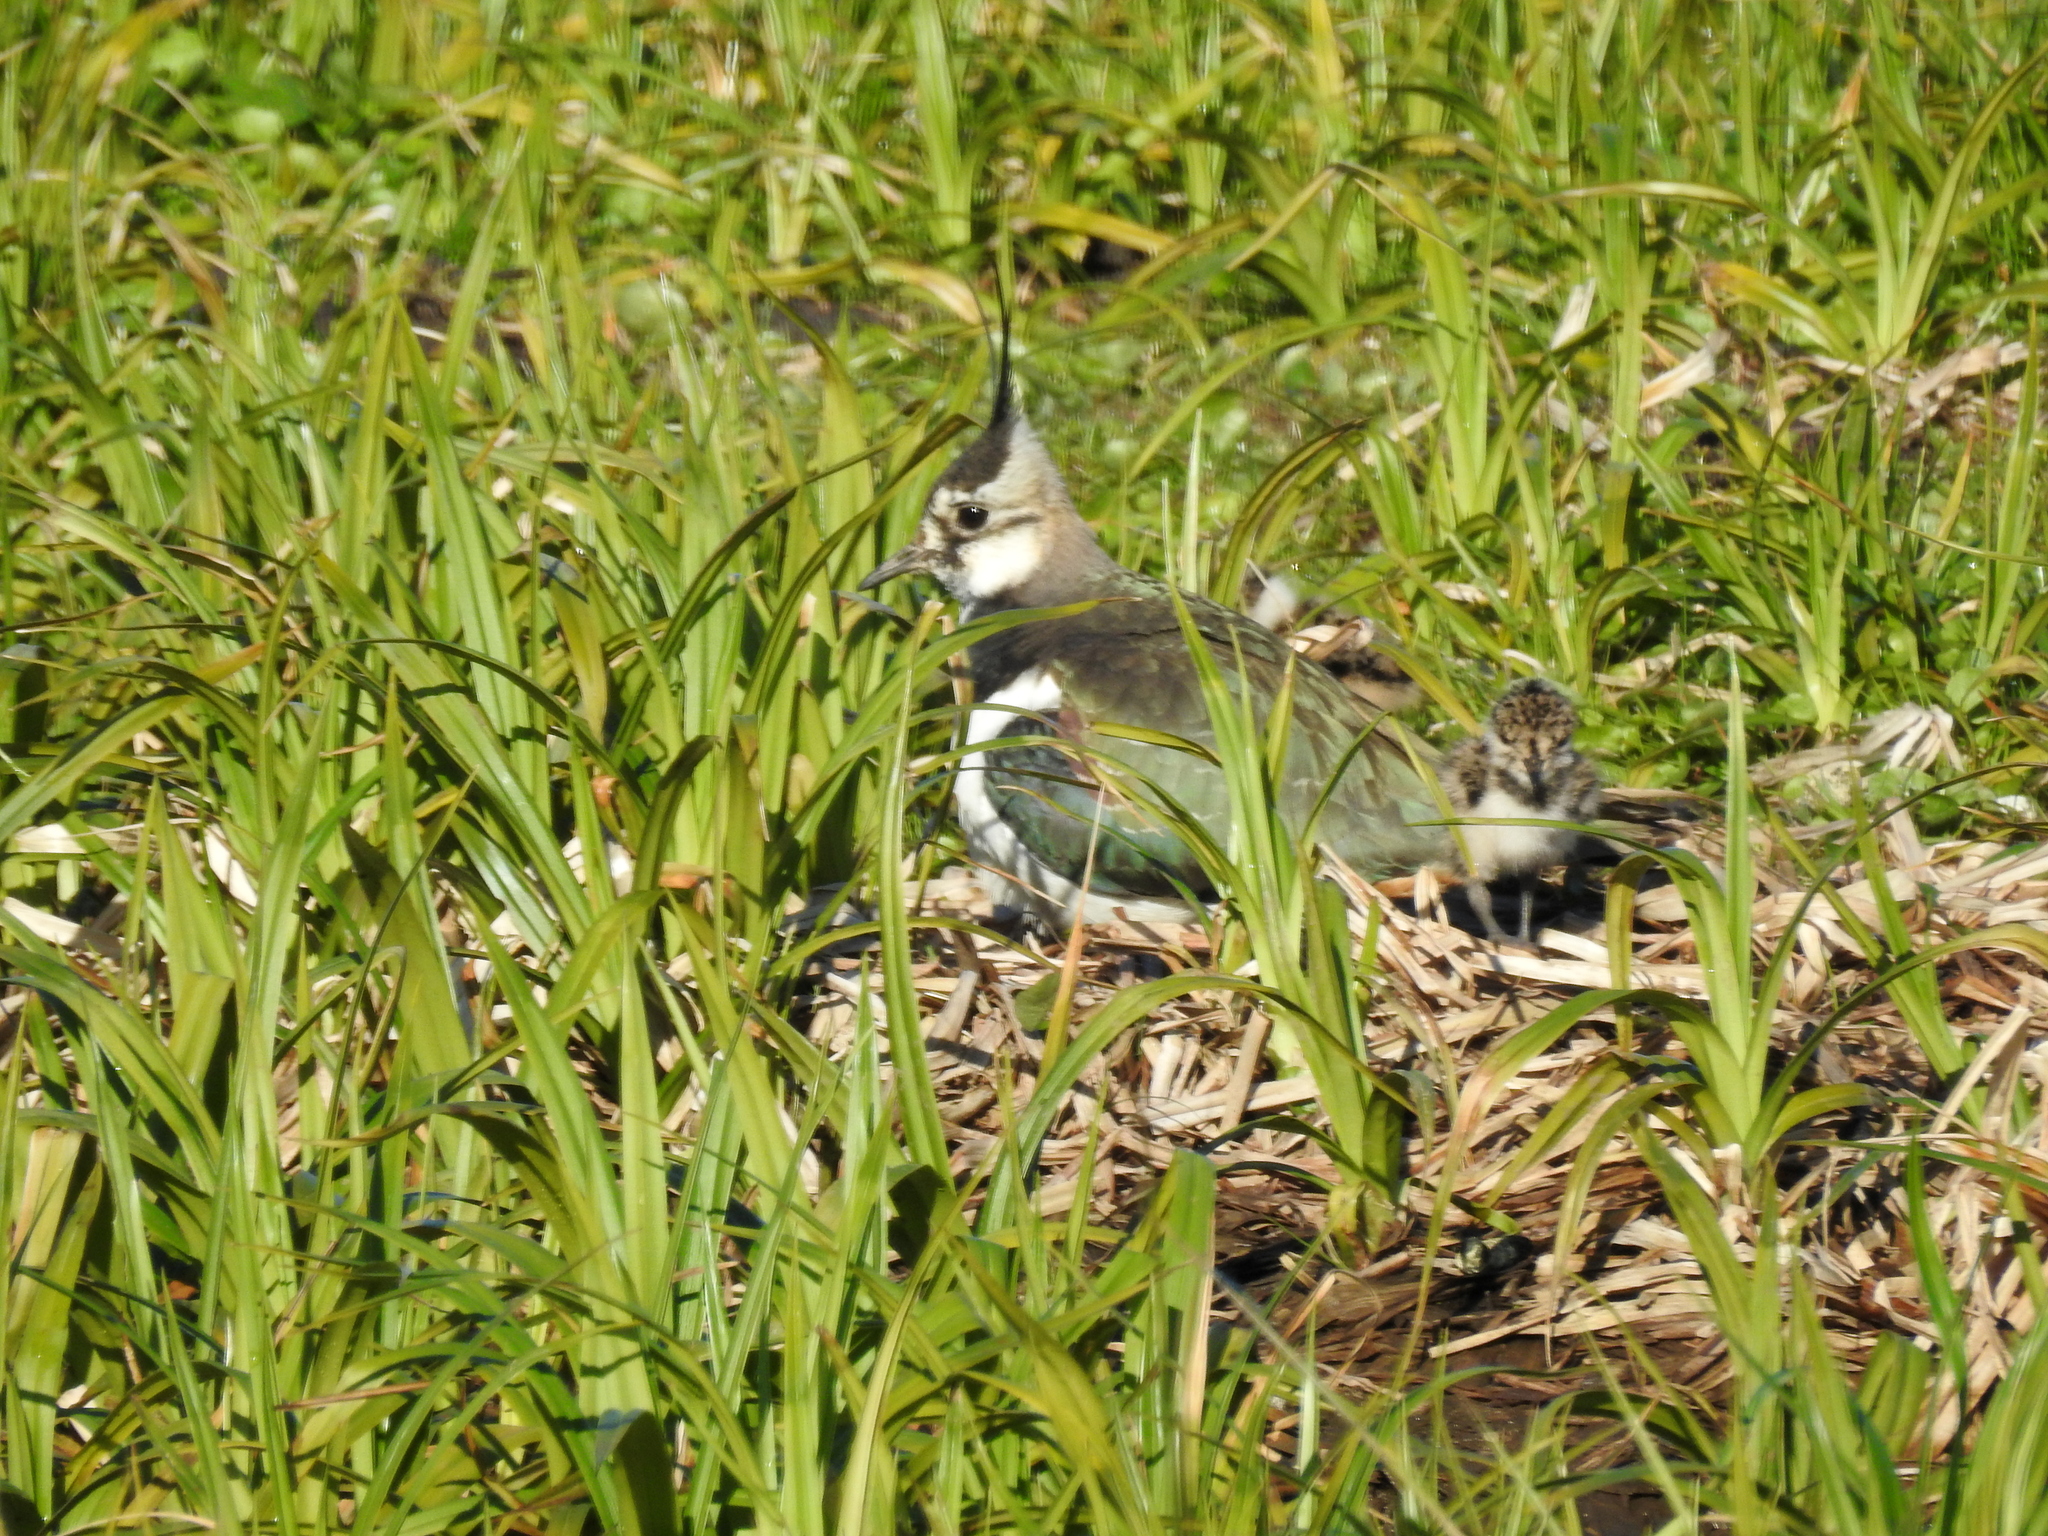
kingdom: Animalia
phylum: Chordata
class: Aves
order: Charadriiformes
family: Charadriidae
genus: Vanellus
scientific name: Vanellus vanellus
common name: Northern lapwing
